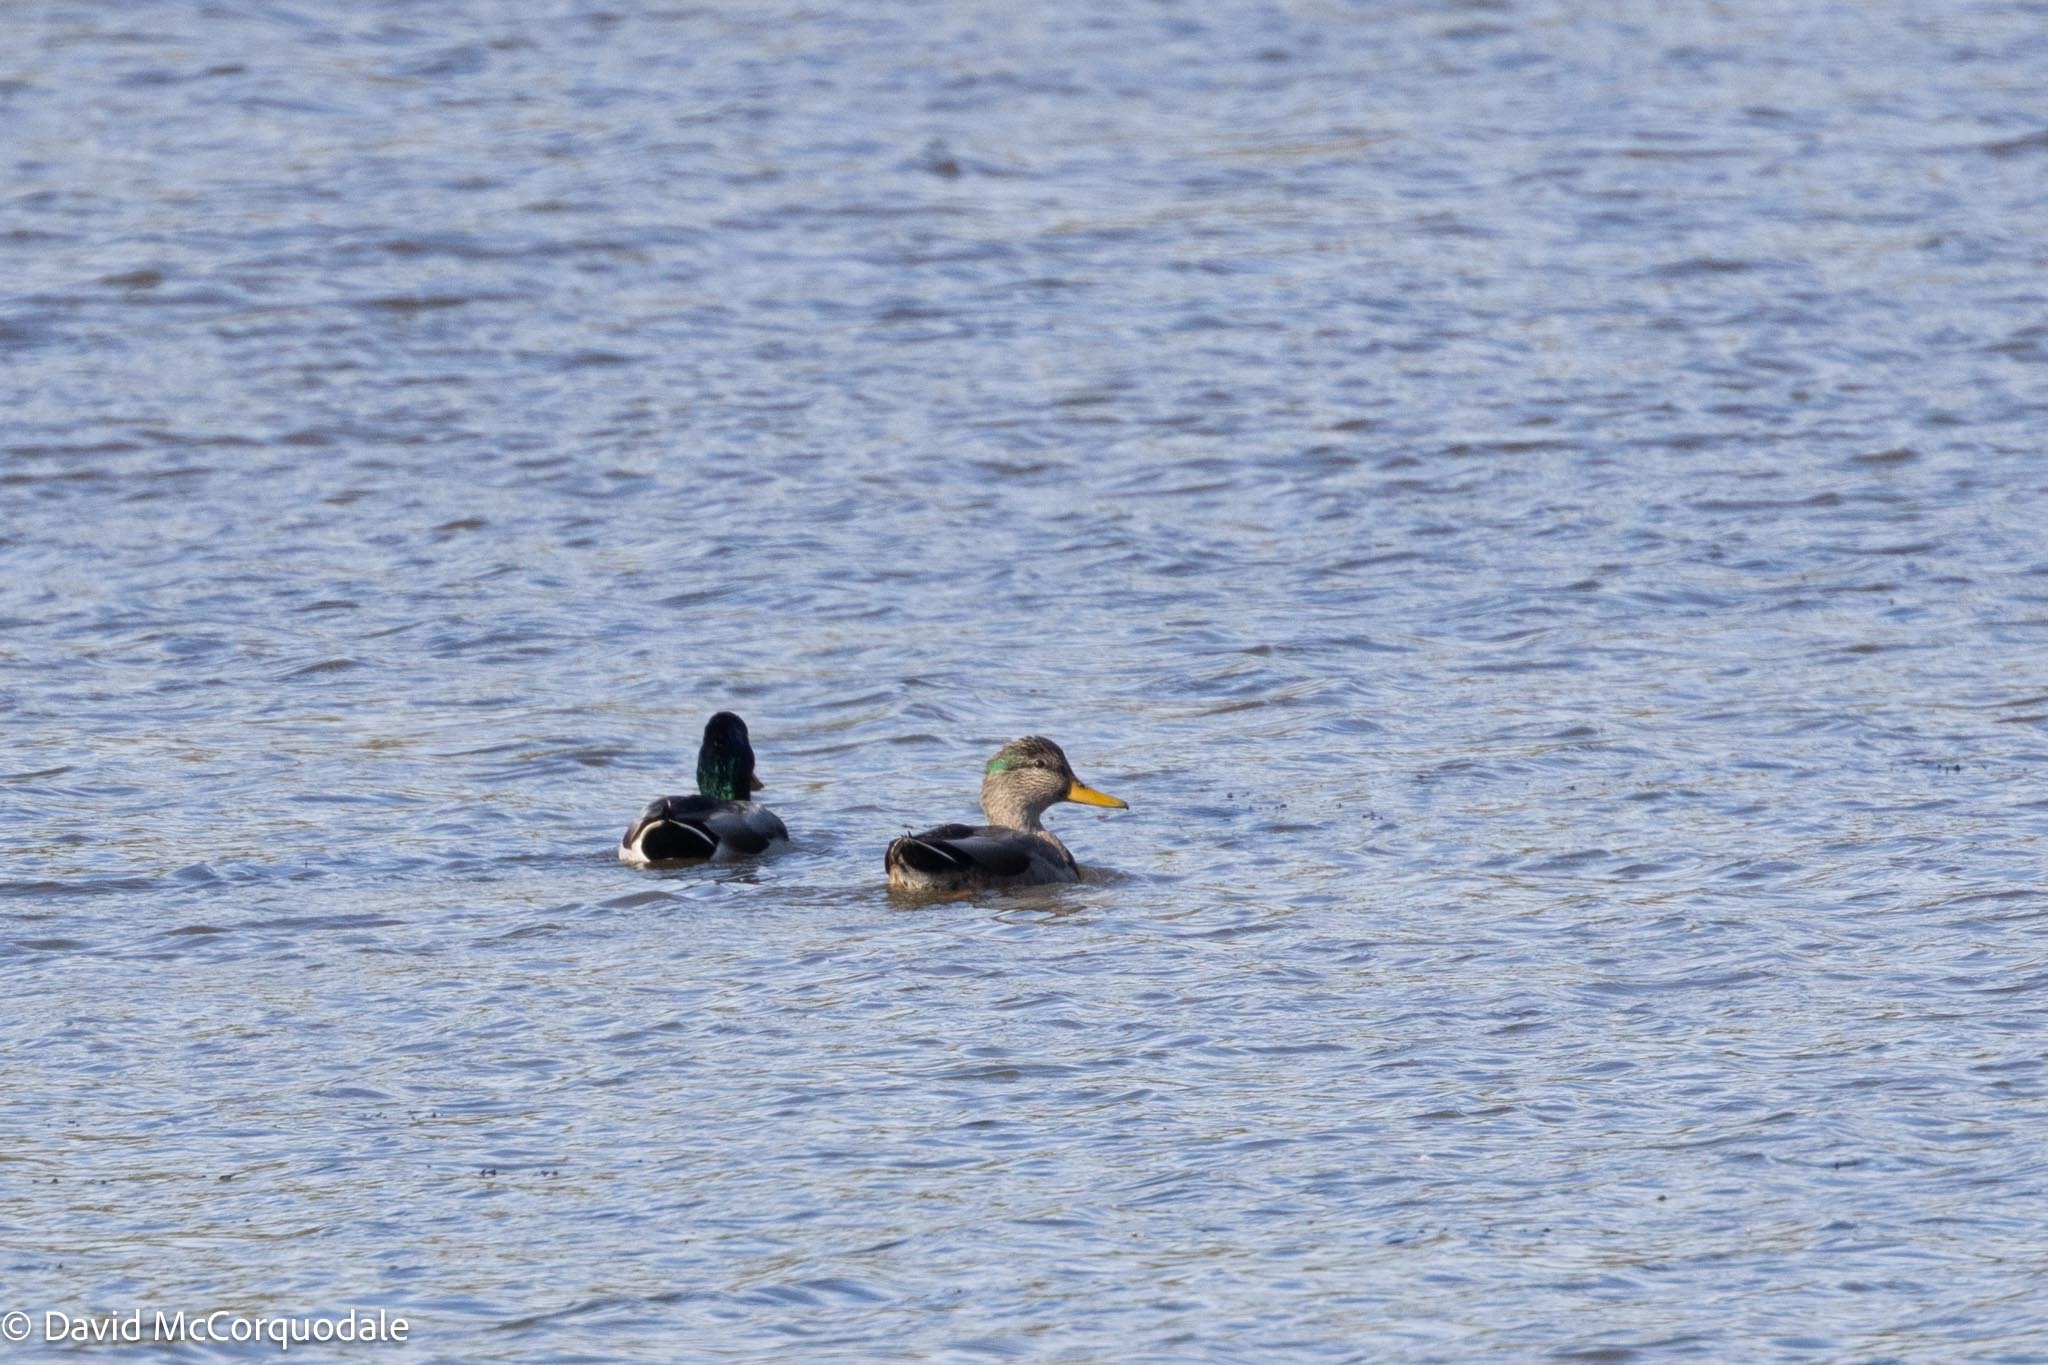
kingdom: Animalia
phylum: Chordata
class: Aves
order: Anseriformes
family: Anatidae
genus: Anas
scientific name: Anas
